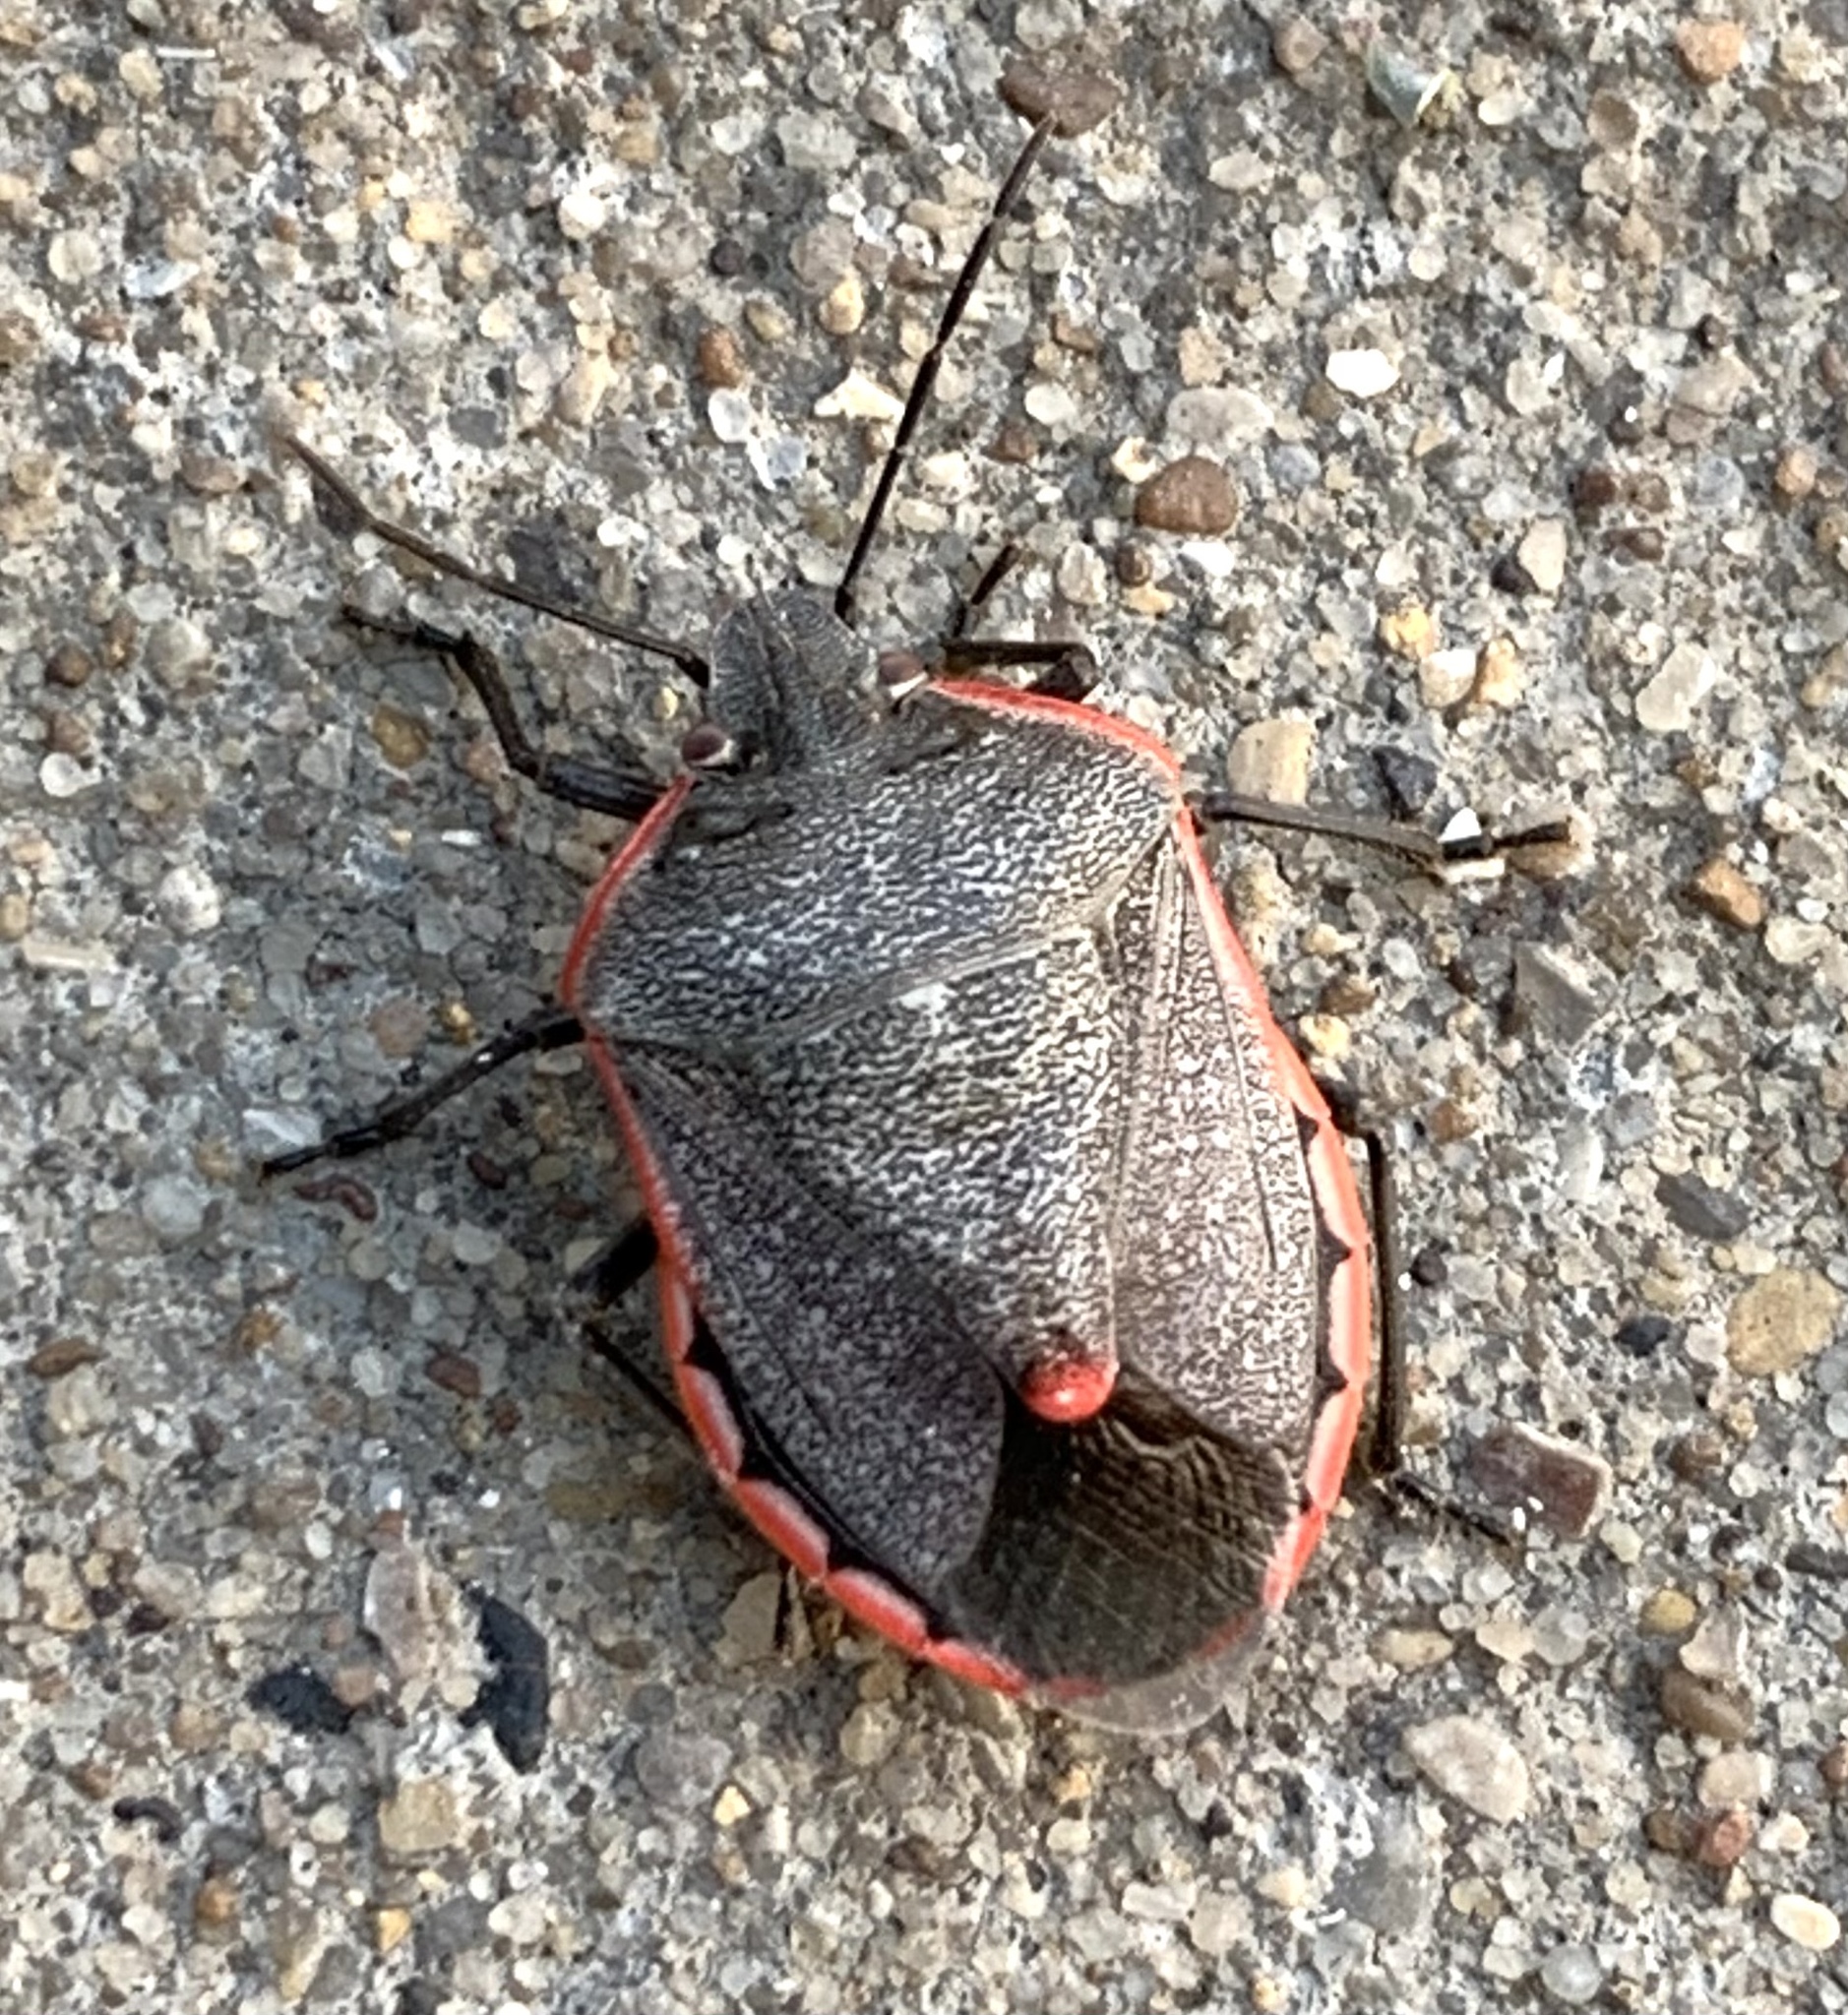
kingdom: Animalia
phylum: Arthropoda
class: Insecta
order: Hemiptera
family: Pentatomidae
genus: Chlorochroa
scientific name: Chlorochroa ligata
